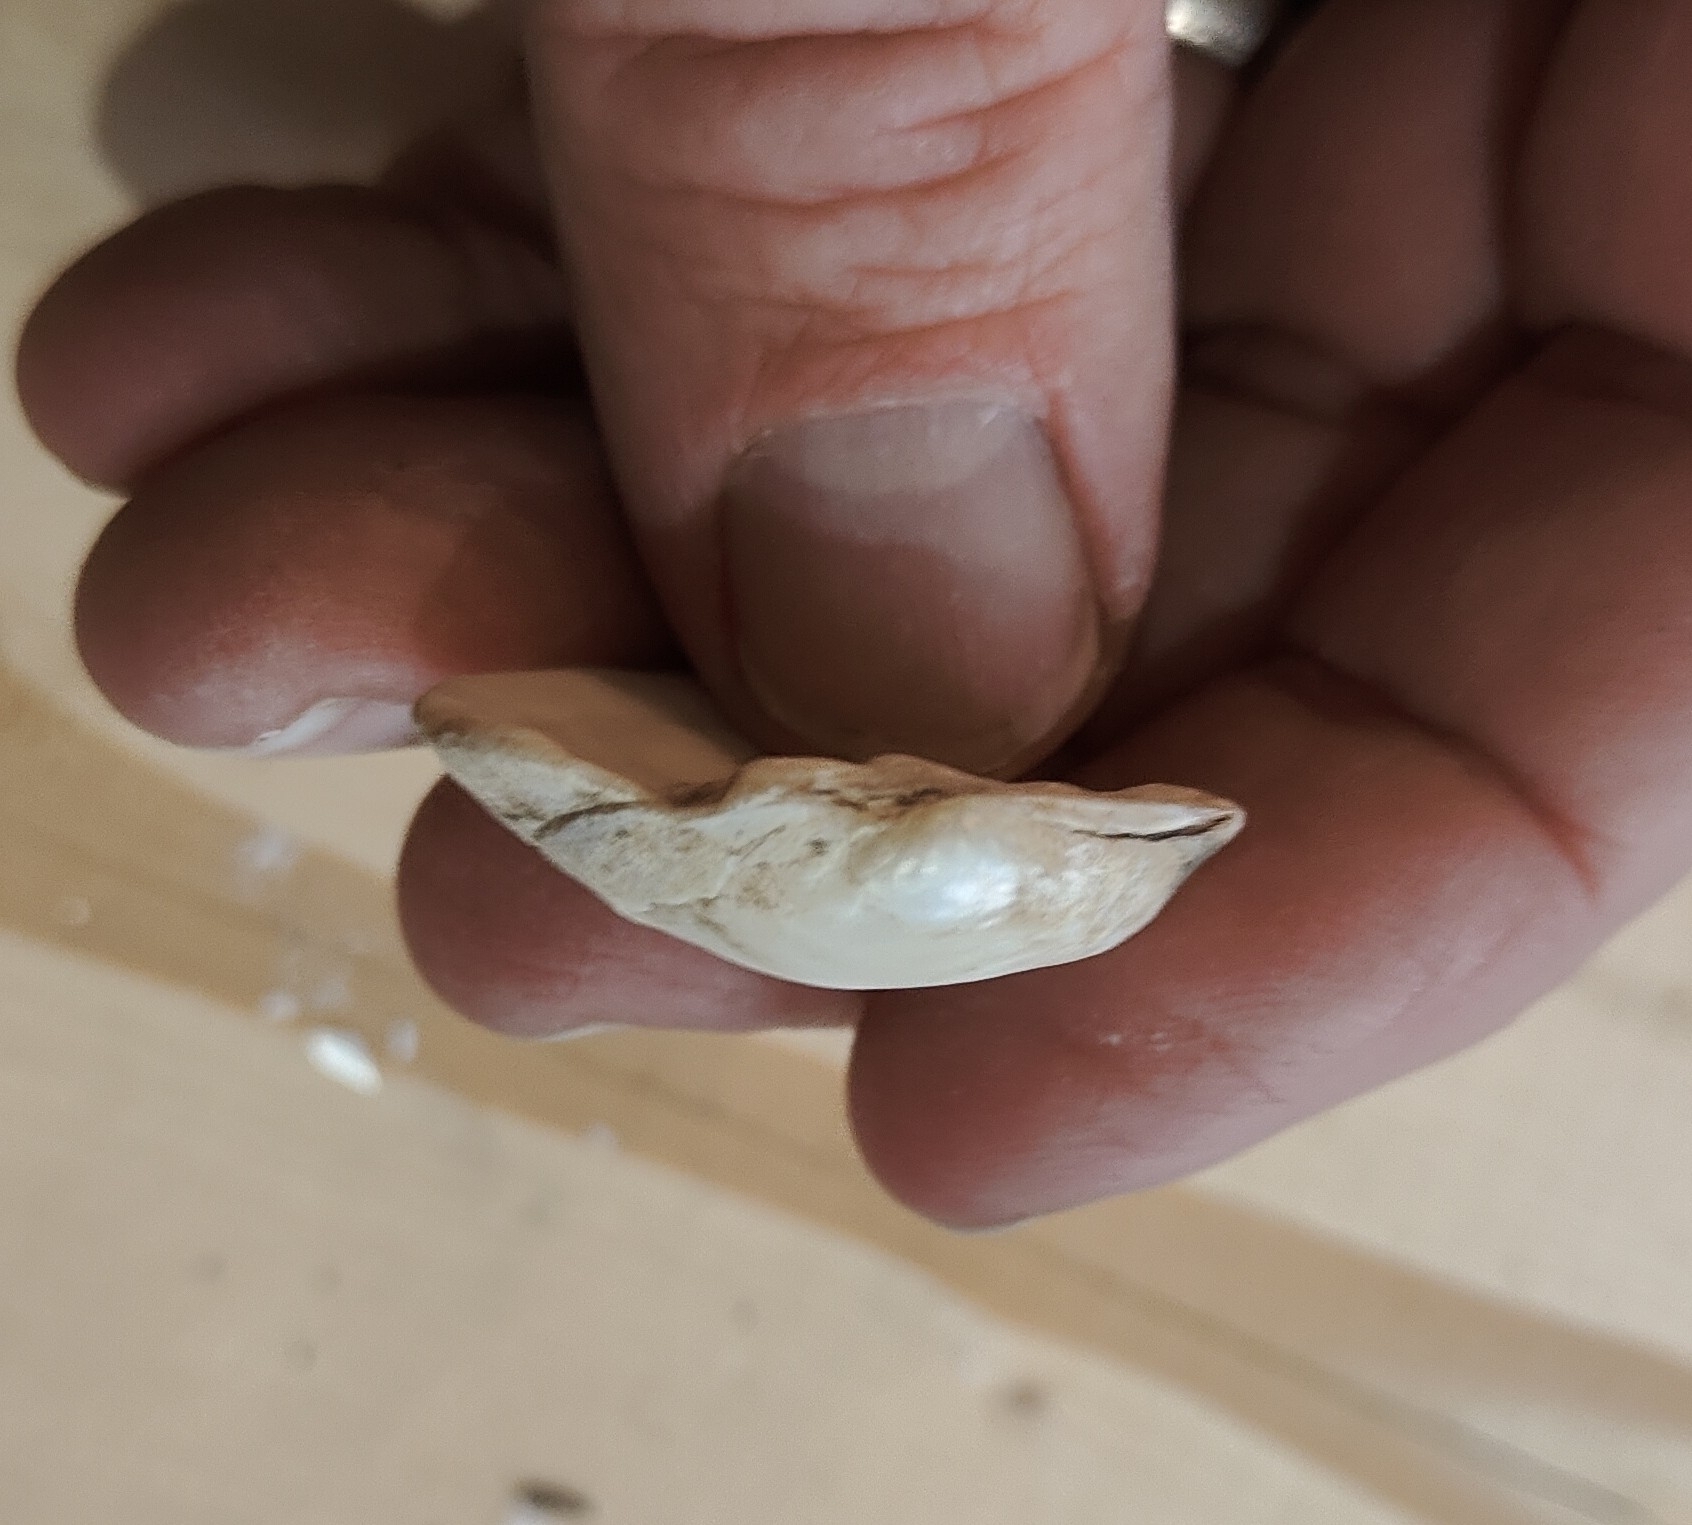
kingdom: Animalia
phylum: Mollusca
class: Bivalvia
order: Unionida
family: Unionidae
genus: Cyclonaias
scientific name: Cyclonaias pustulosa
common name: Pimpleback
